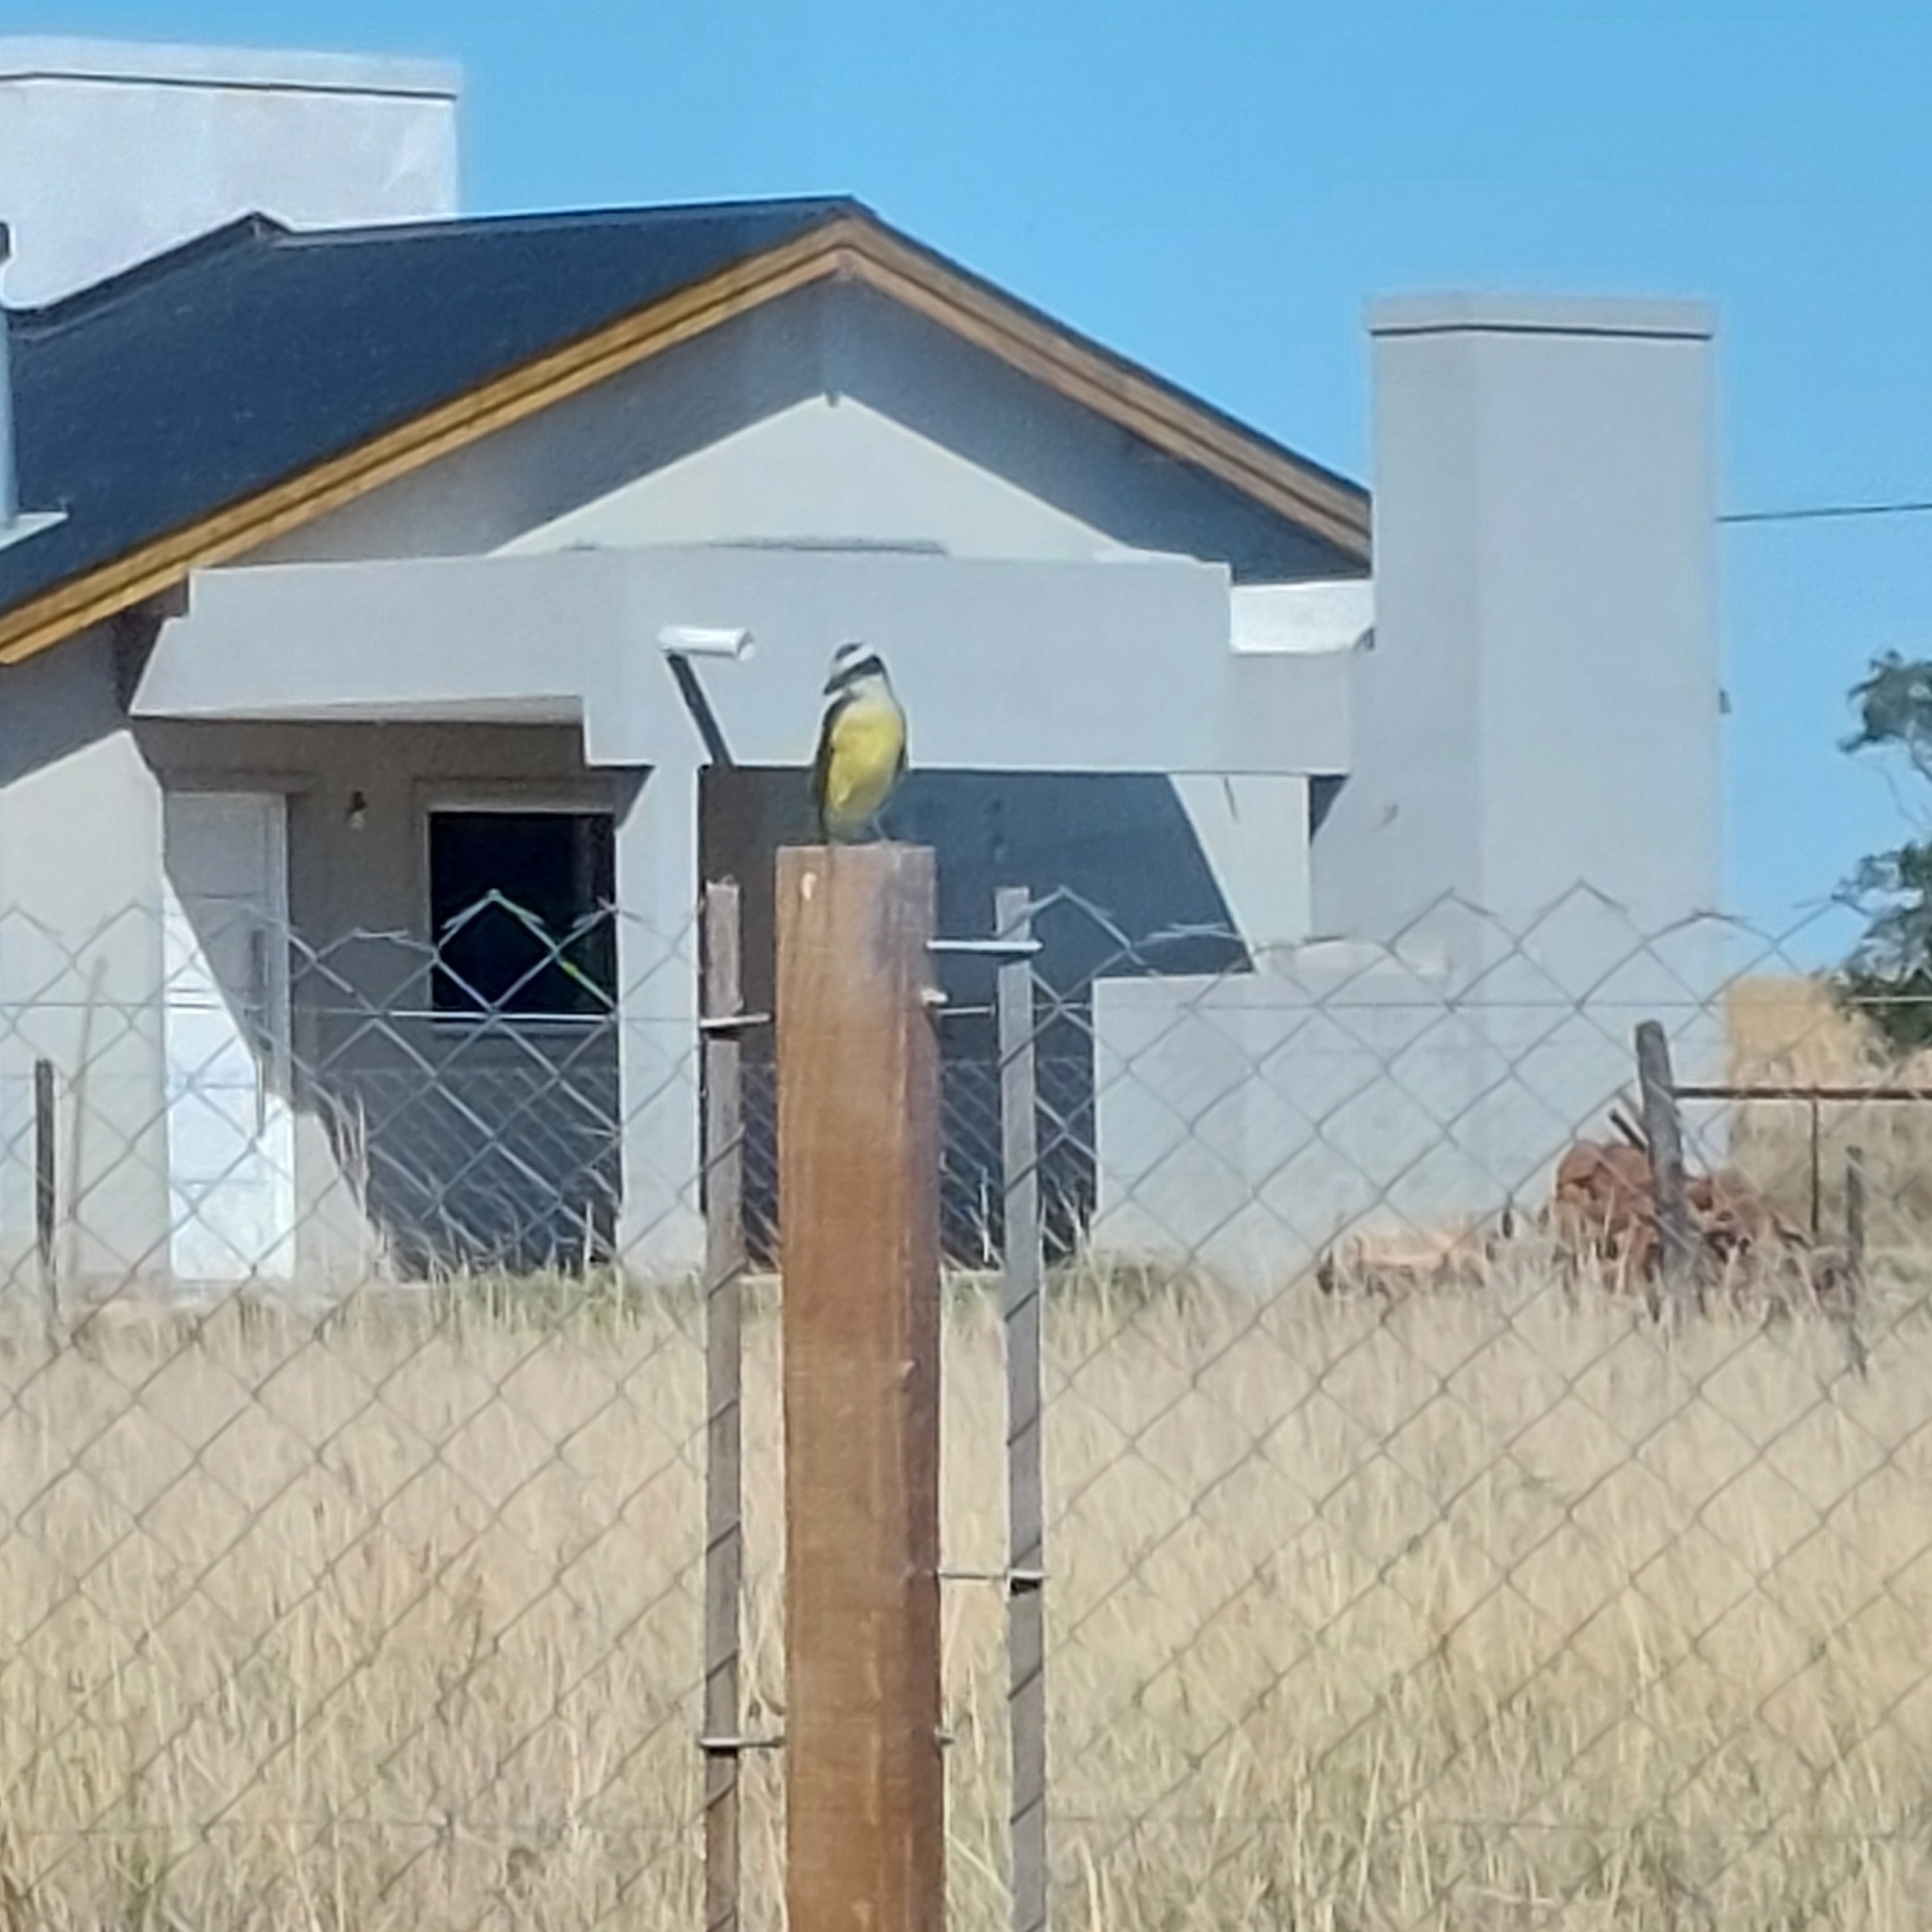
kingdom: Animalia
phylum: Chordata
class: Aves
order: Passeriformes
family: Tyrannidae
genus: Pitangus
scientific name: Pitangus sulphuratus
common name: Great kiskadee
